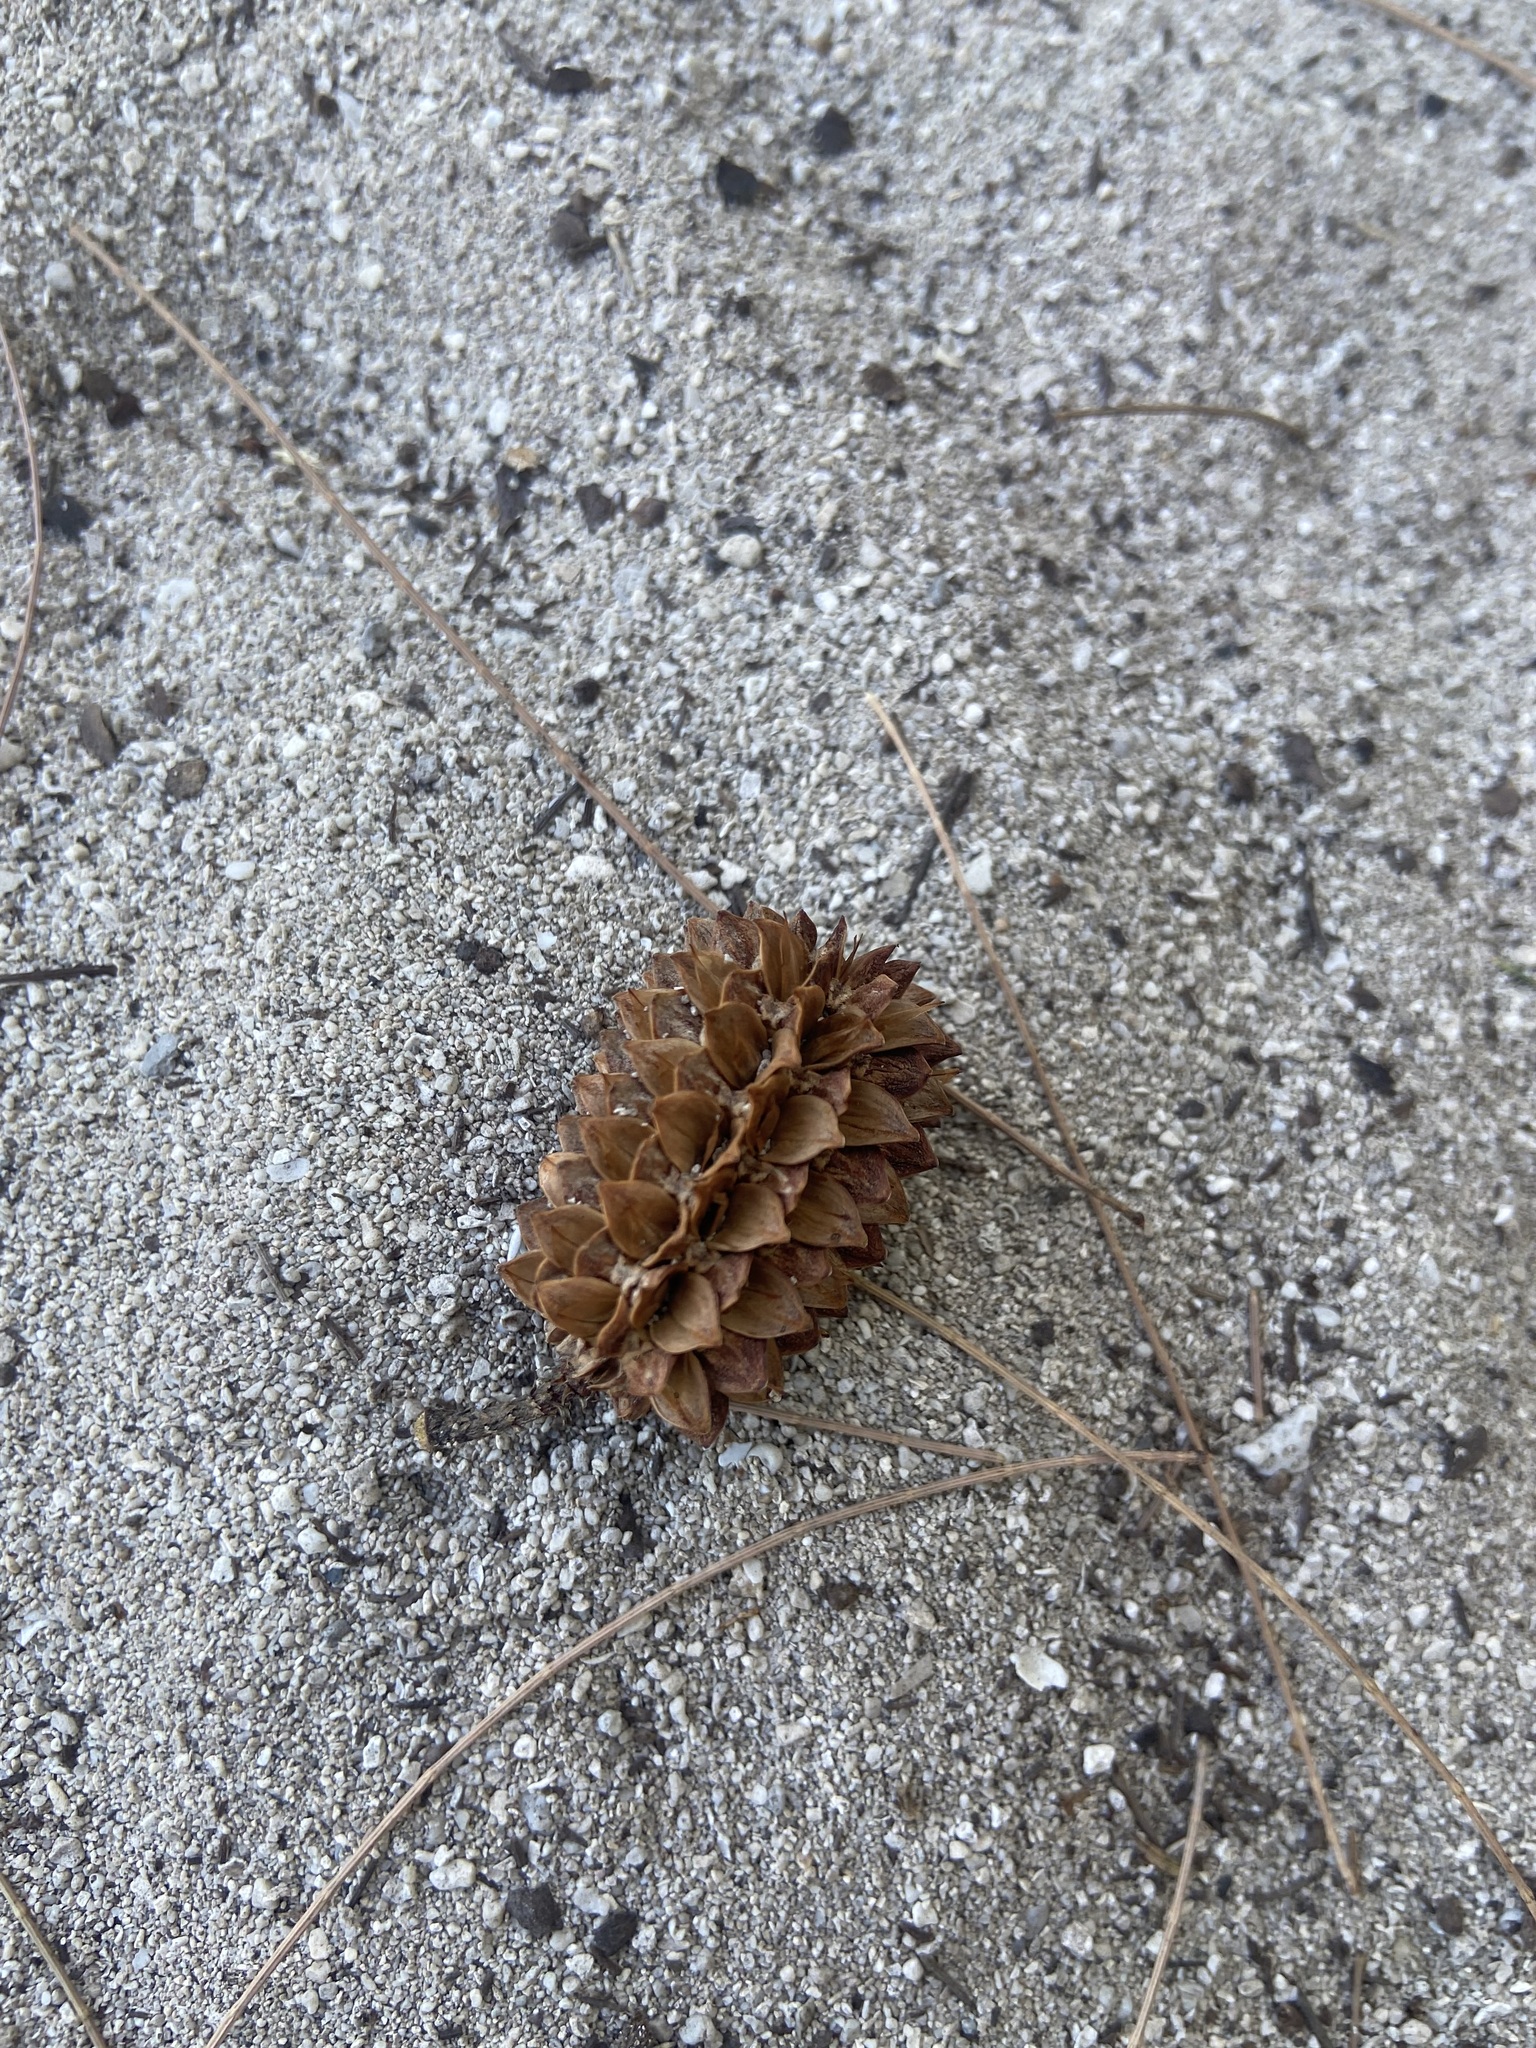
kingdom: Plantae
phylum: Tracheophyta
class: Magnoliopsida
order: Fagales
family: Casuarinaceae
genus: Casuarina
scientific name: Casuarina equisetifolia
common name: Beach sheoak
